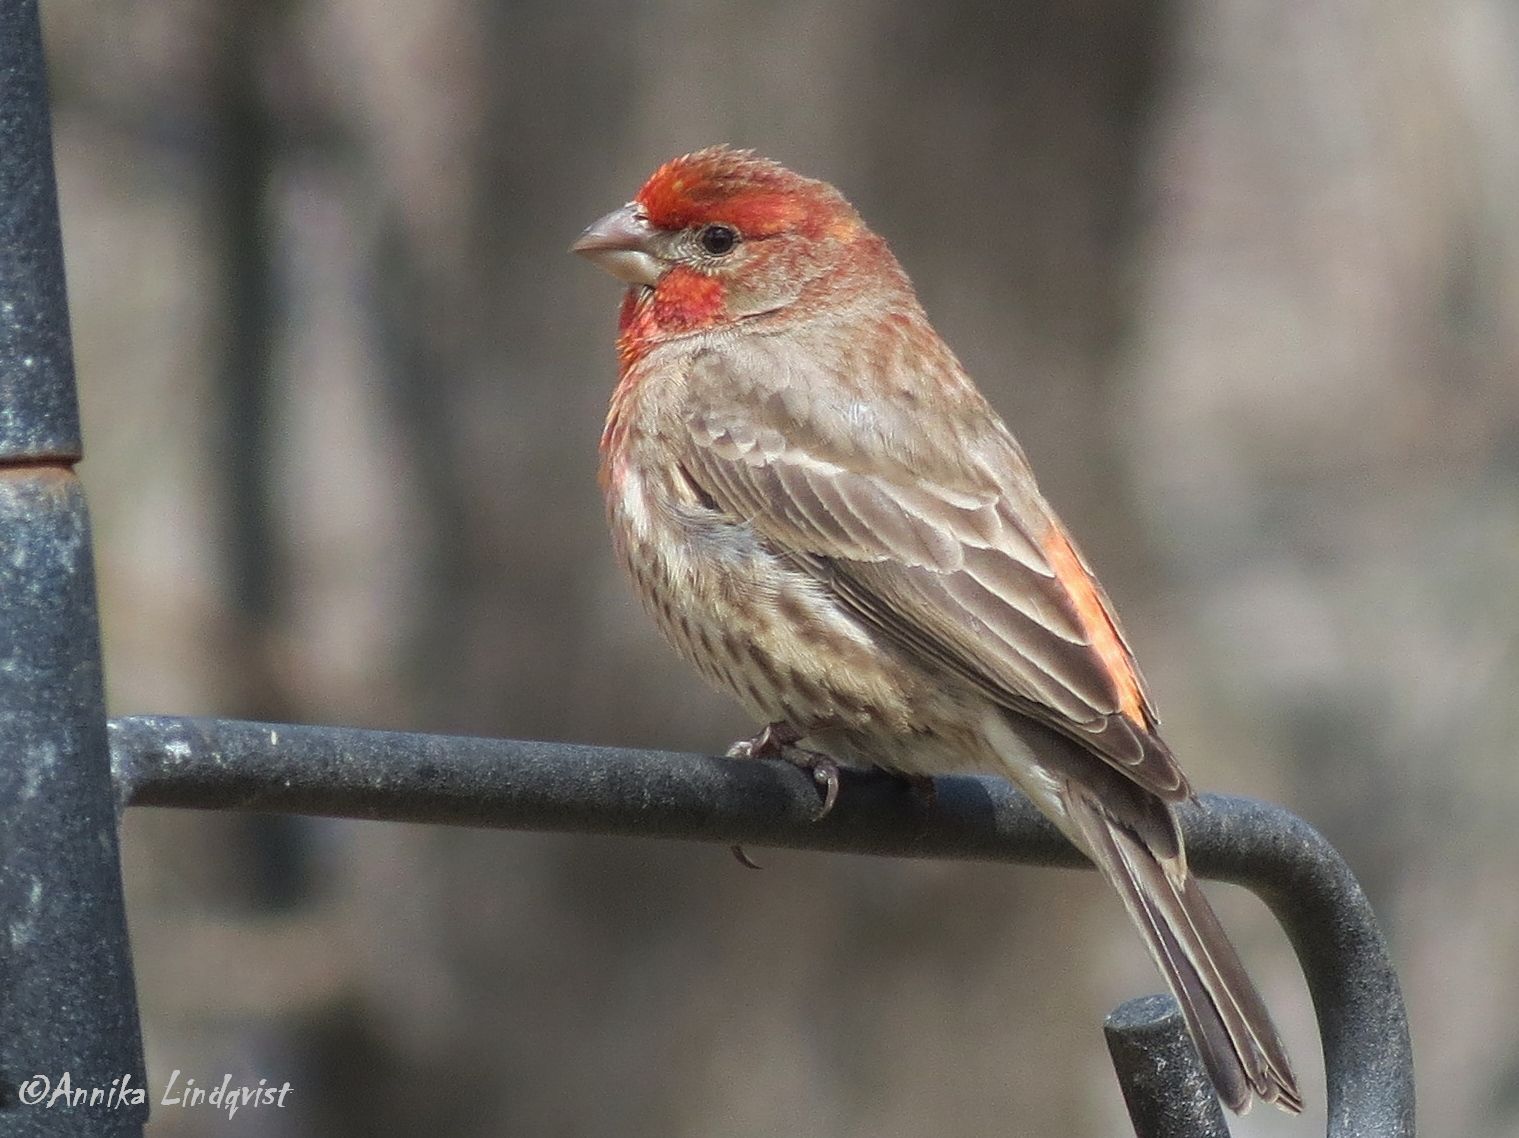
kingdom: Animalia
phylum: Chordata
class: Aves
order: Passeriformes
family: Fringillidae
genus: Haemorhous
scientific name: Haemorhous mexicanus
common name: House finch
